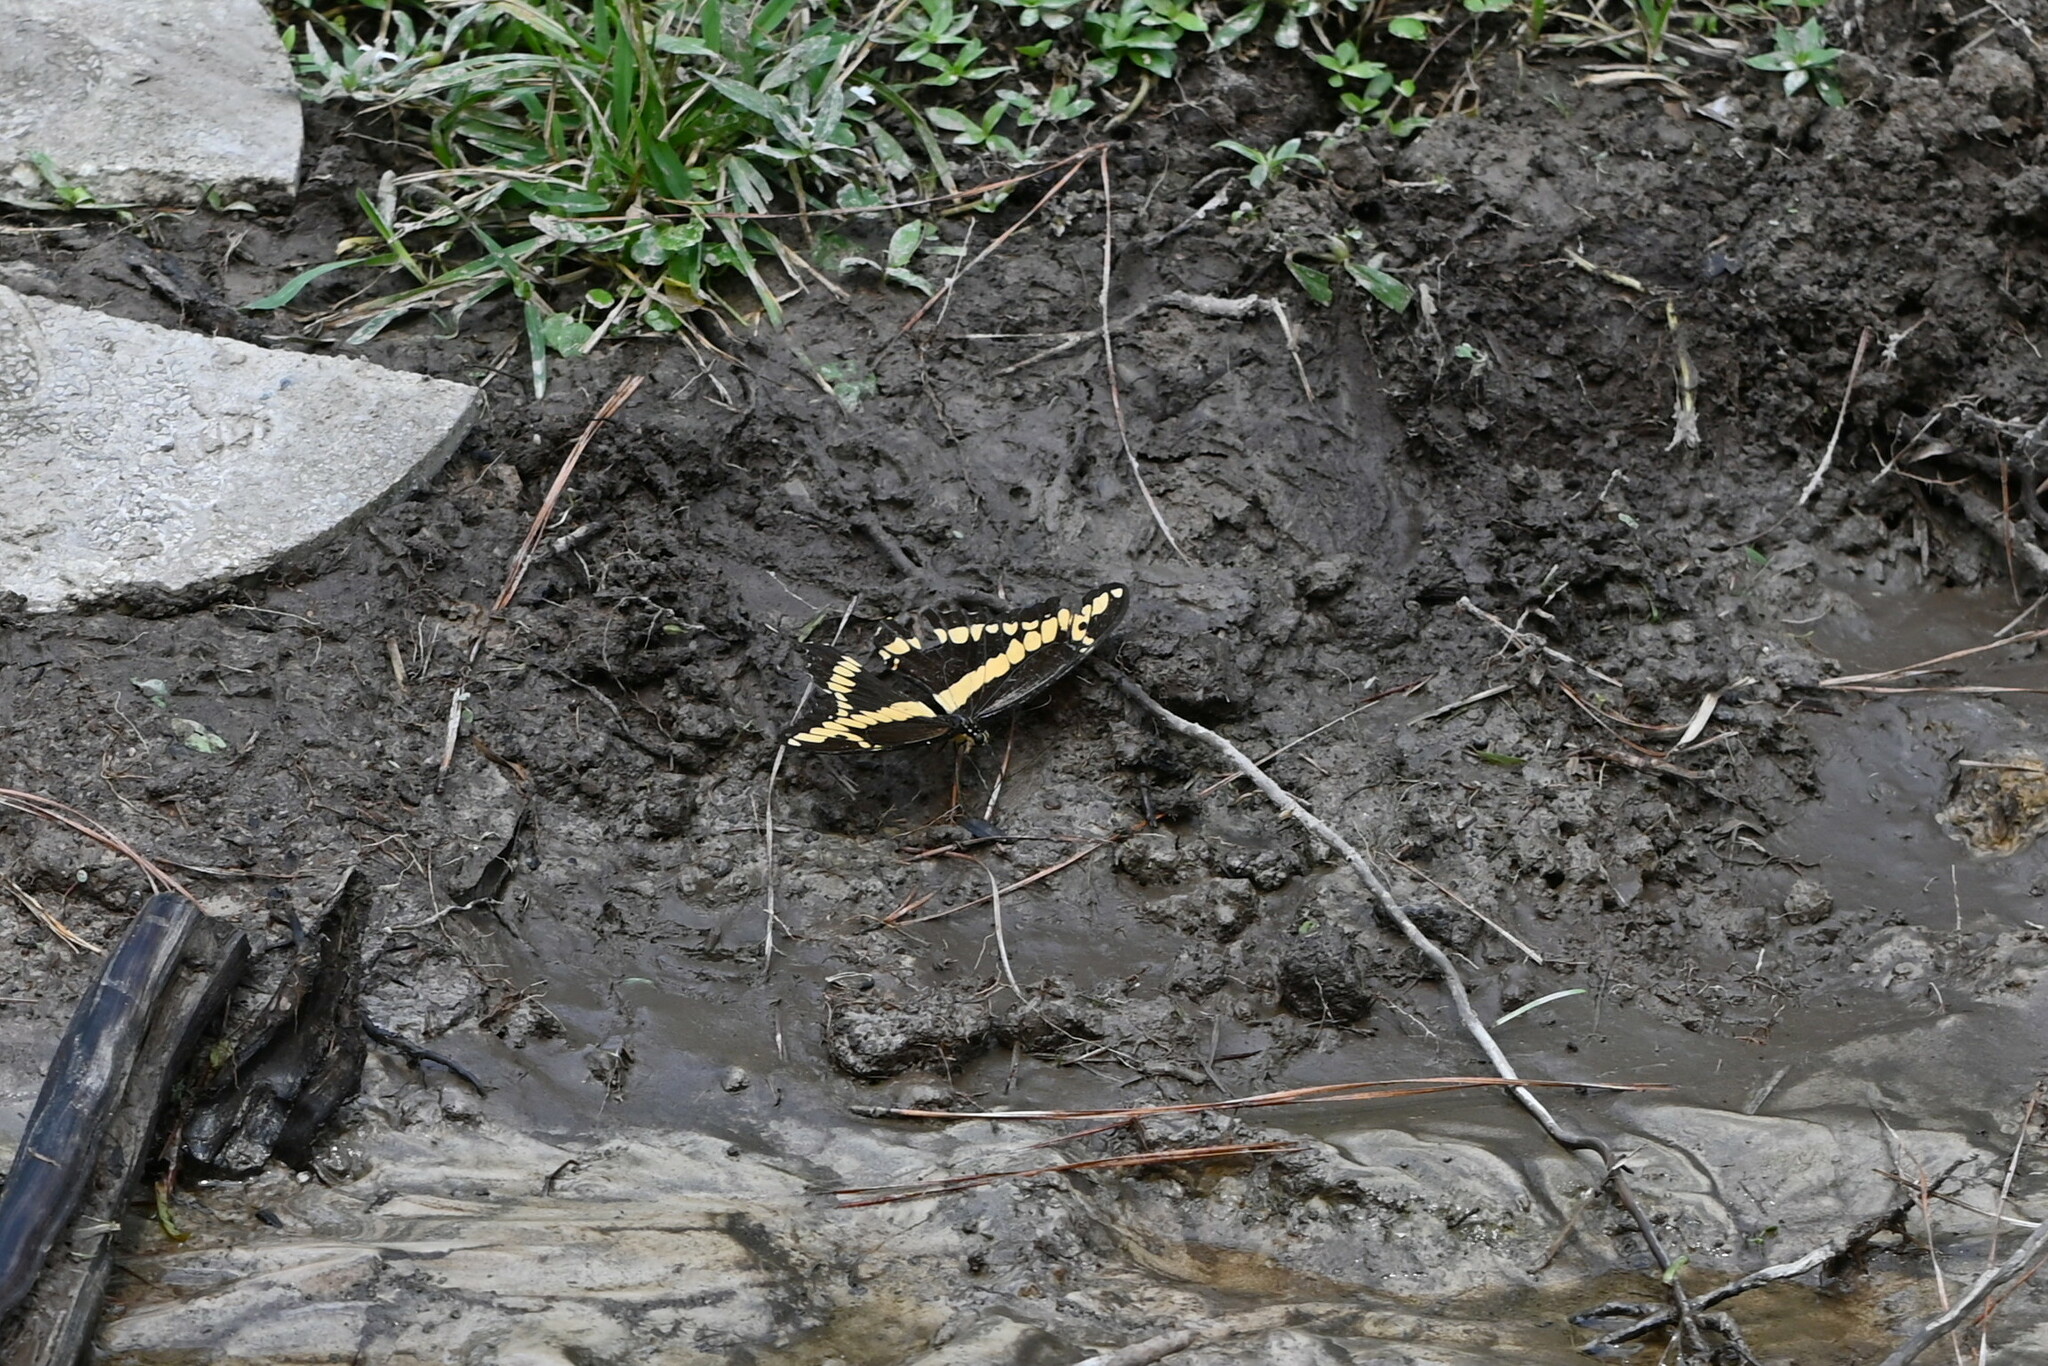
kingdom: Animalia
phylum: Arthropoda
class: Insecta
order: Lepidoptera
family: Papilionidae
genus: Papilio
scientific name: Papilio cresphontes
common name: Giant swallowtail
